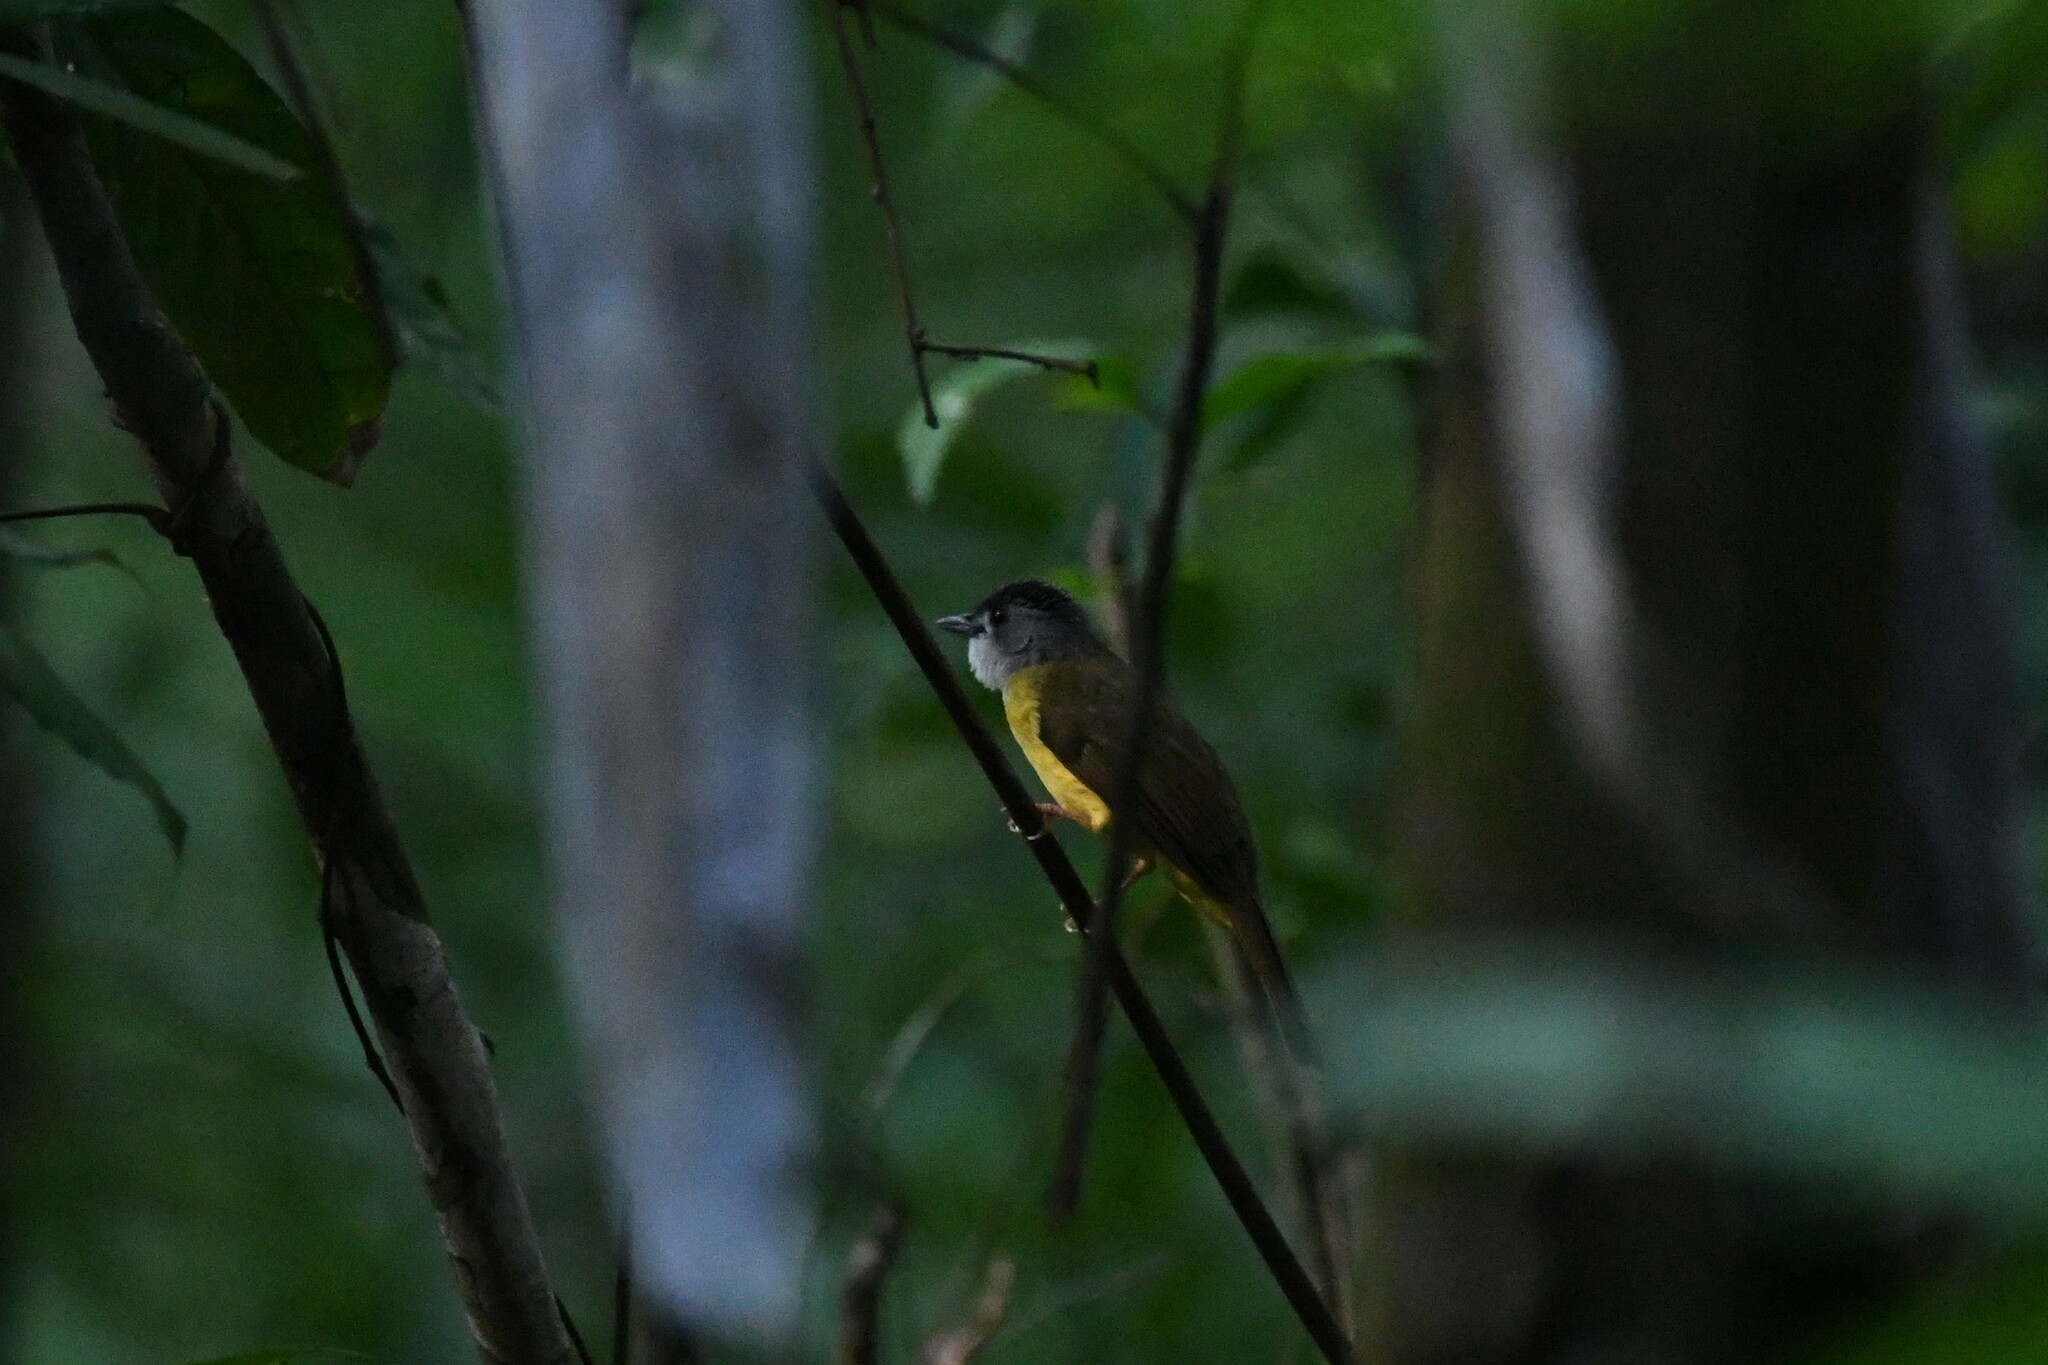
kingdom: Animalia
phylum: Chordata
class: Aves
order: Passeriformes
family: Pycnonotidae
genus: Alophoixus
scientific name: Alophoixus phaeocephalus
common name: Yellow-bellied bulbul
